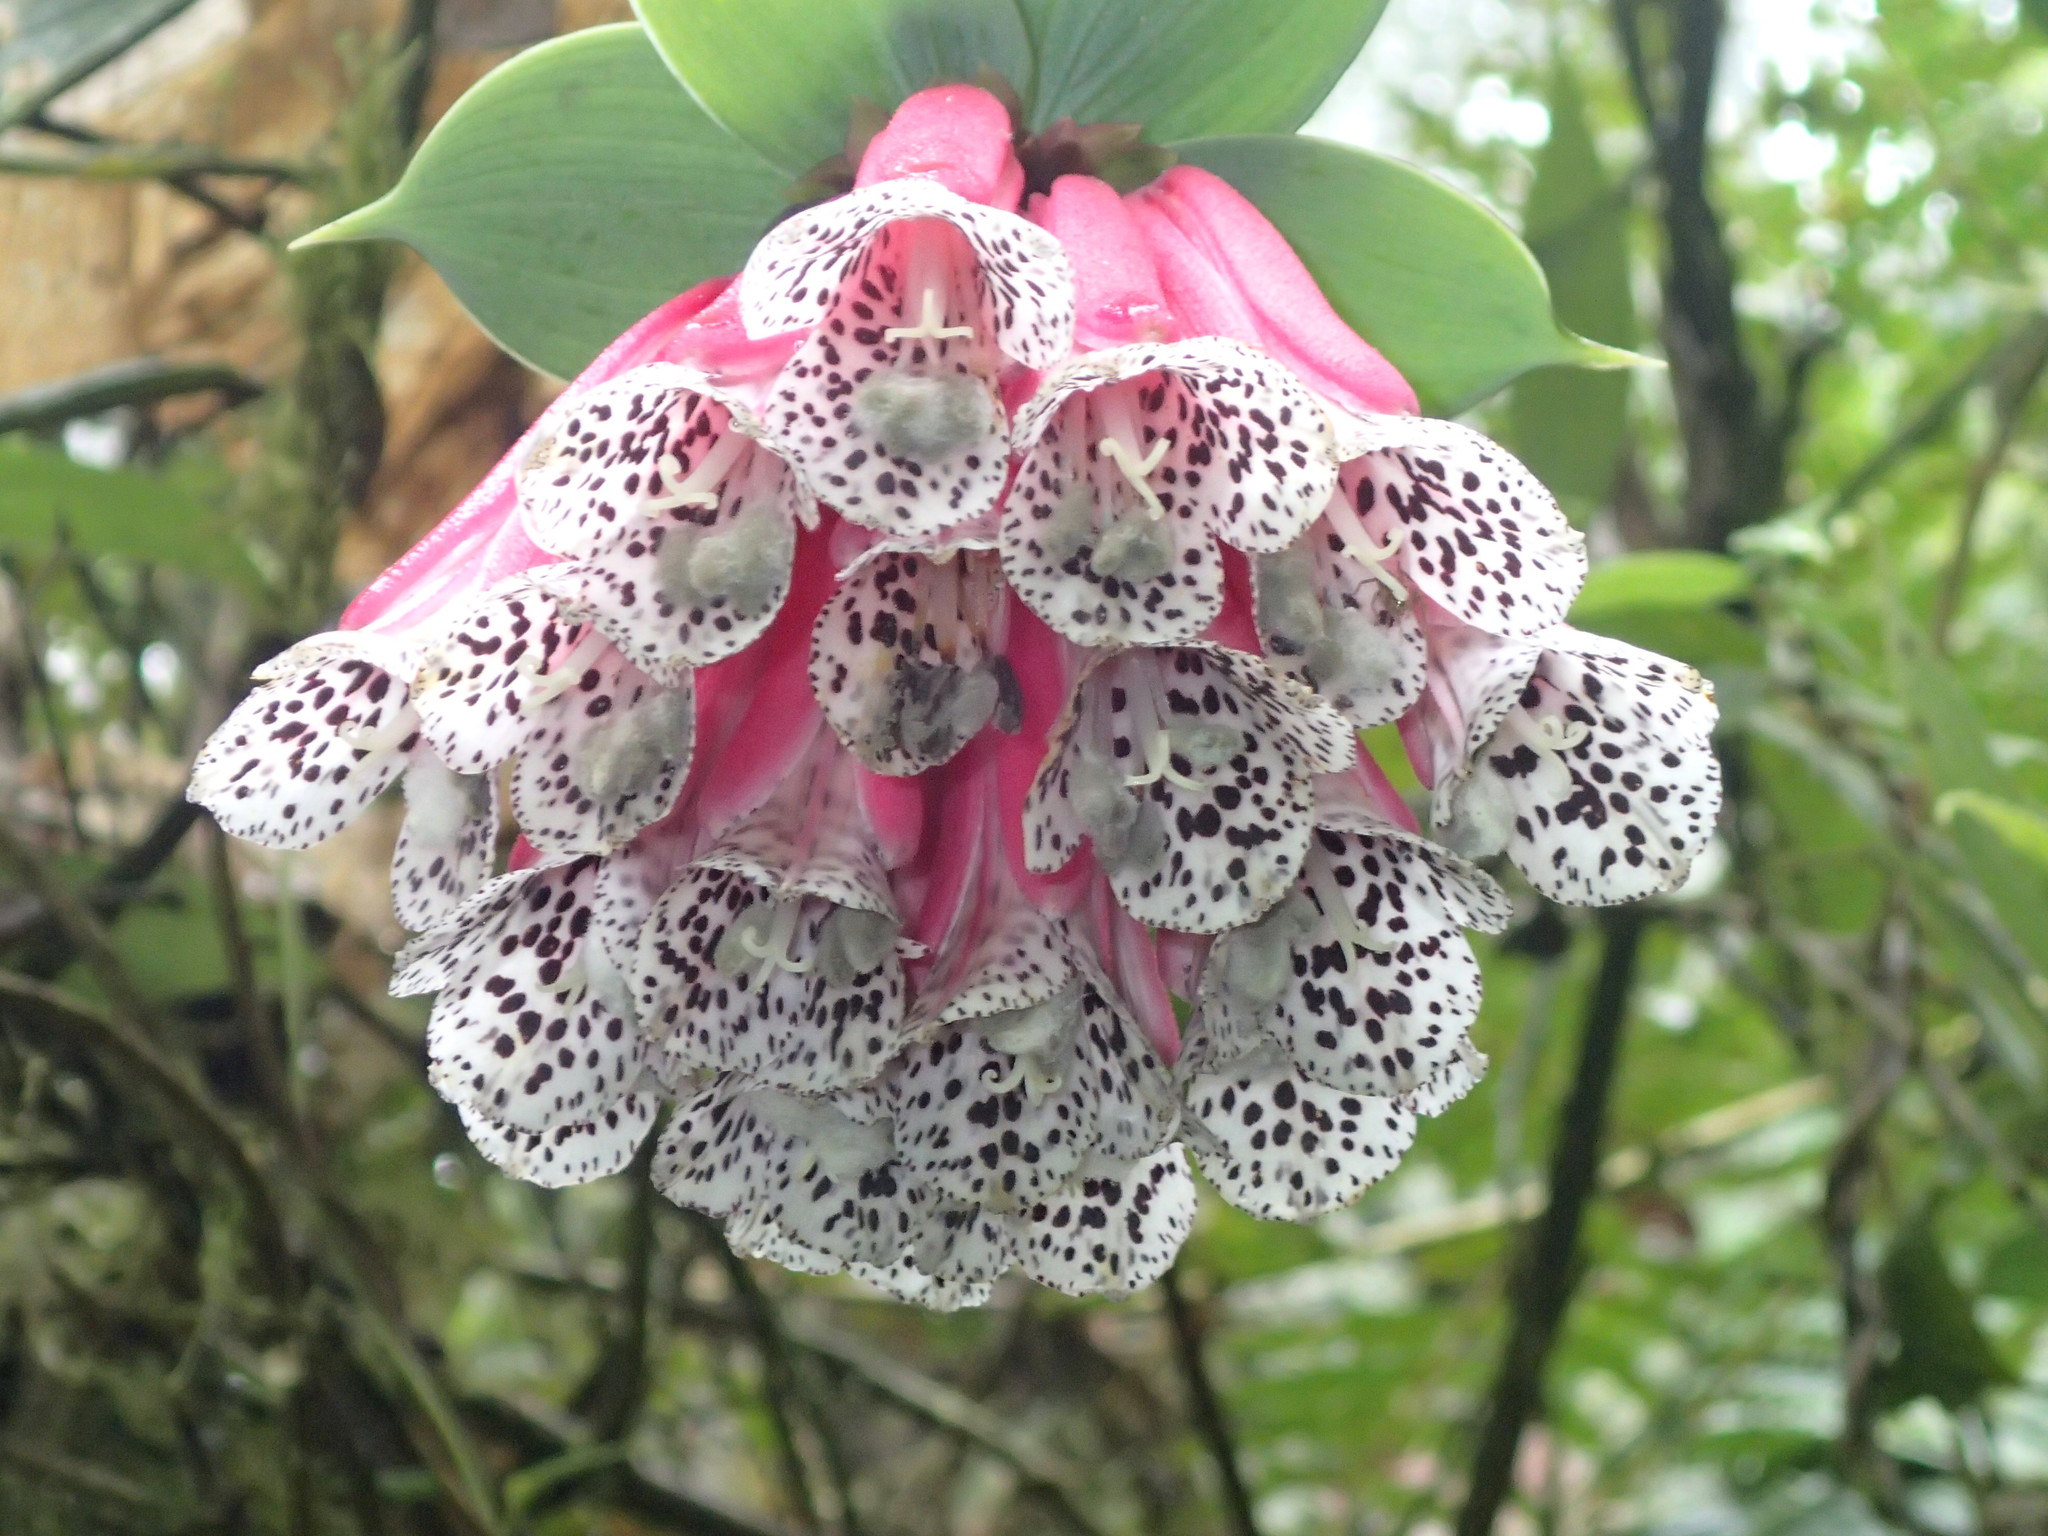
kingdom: Plantae
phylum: Tracheophyta
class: Liliopsida
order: Liliales
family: Alstroemeriaceae
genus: Bomarea
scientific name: Bomarea pardina
